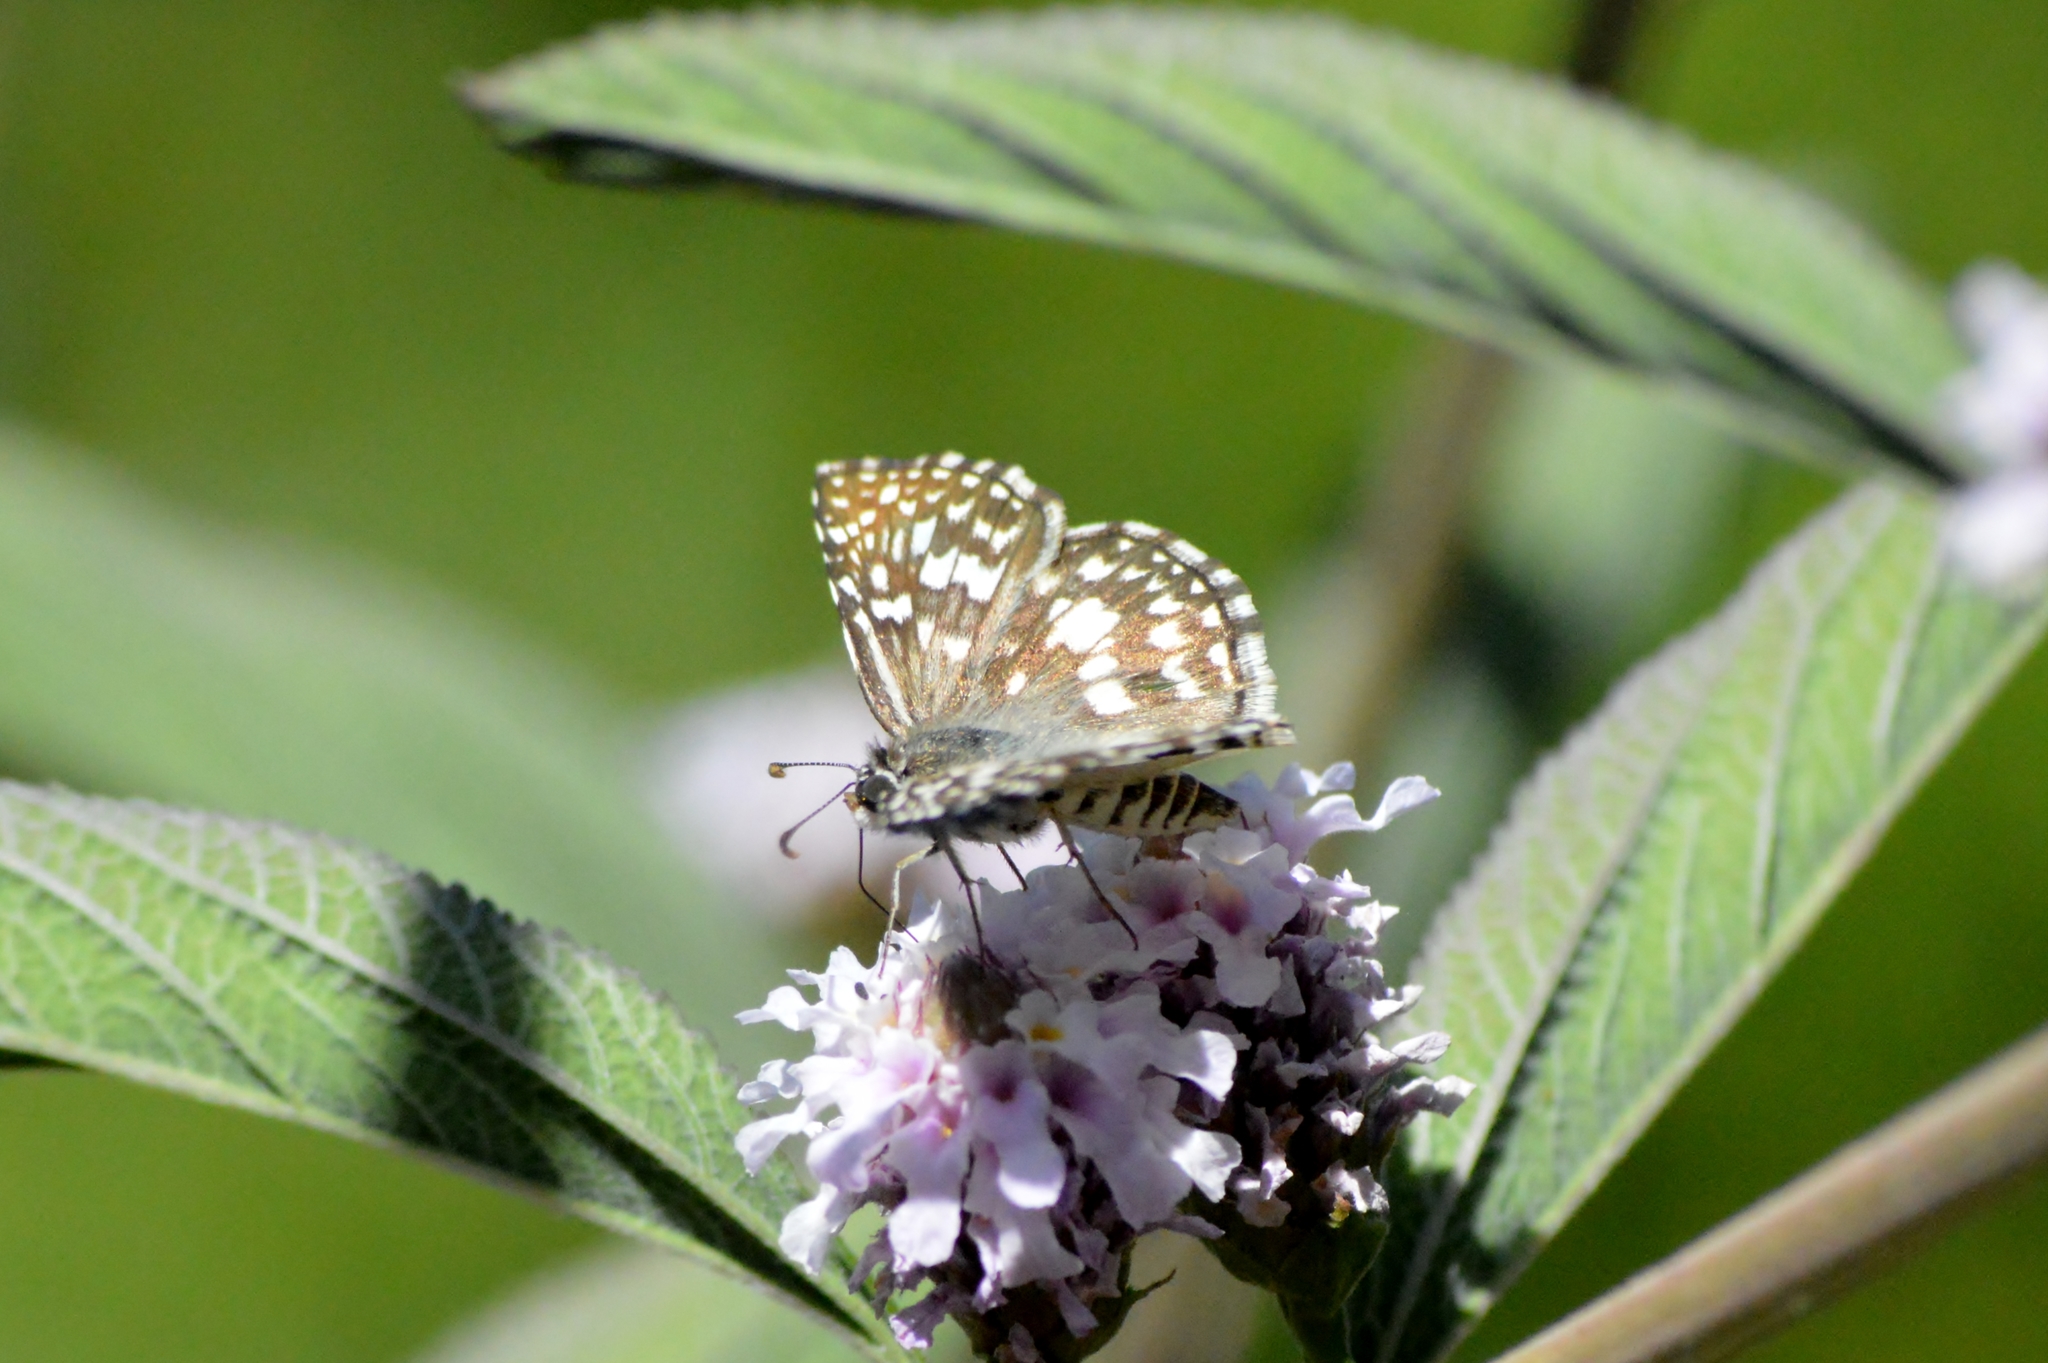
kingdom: Animalia
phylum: Arthropoda
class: Insecta
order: Lepidoptera
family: Hesperiidae
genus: Pyrgus
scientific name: Pyrgus oileus
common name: Tropical checkered-skipper
